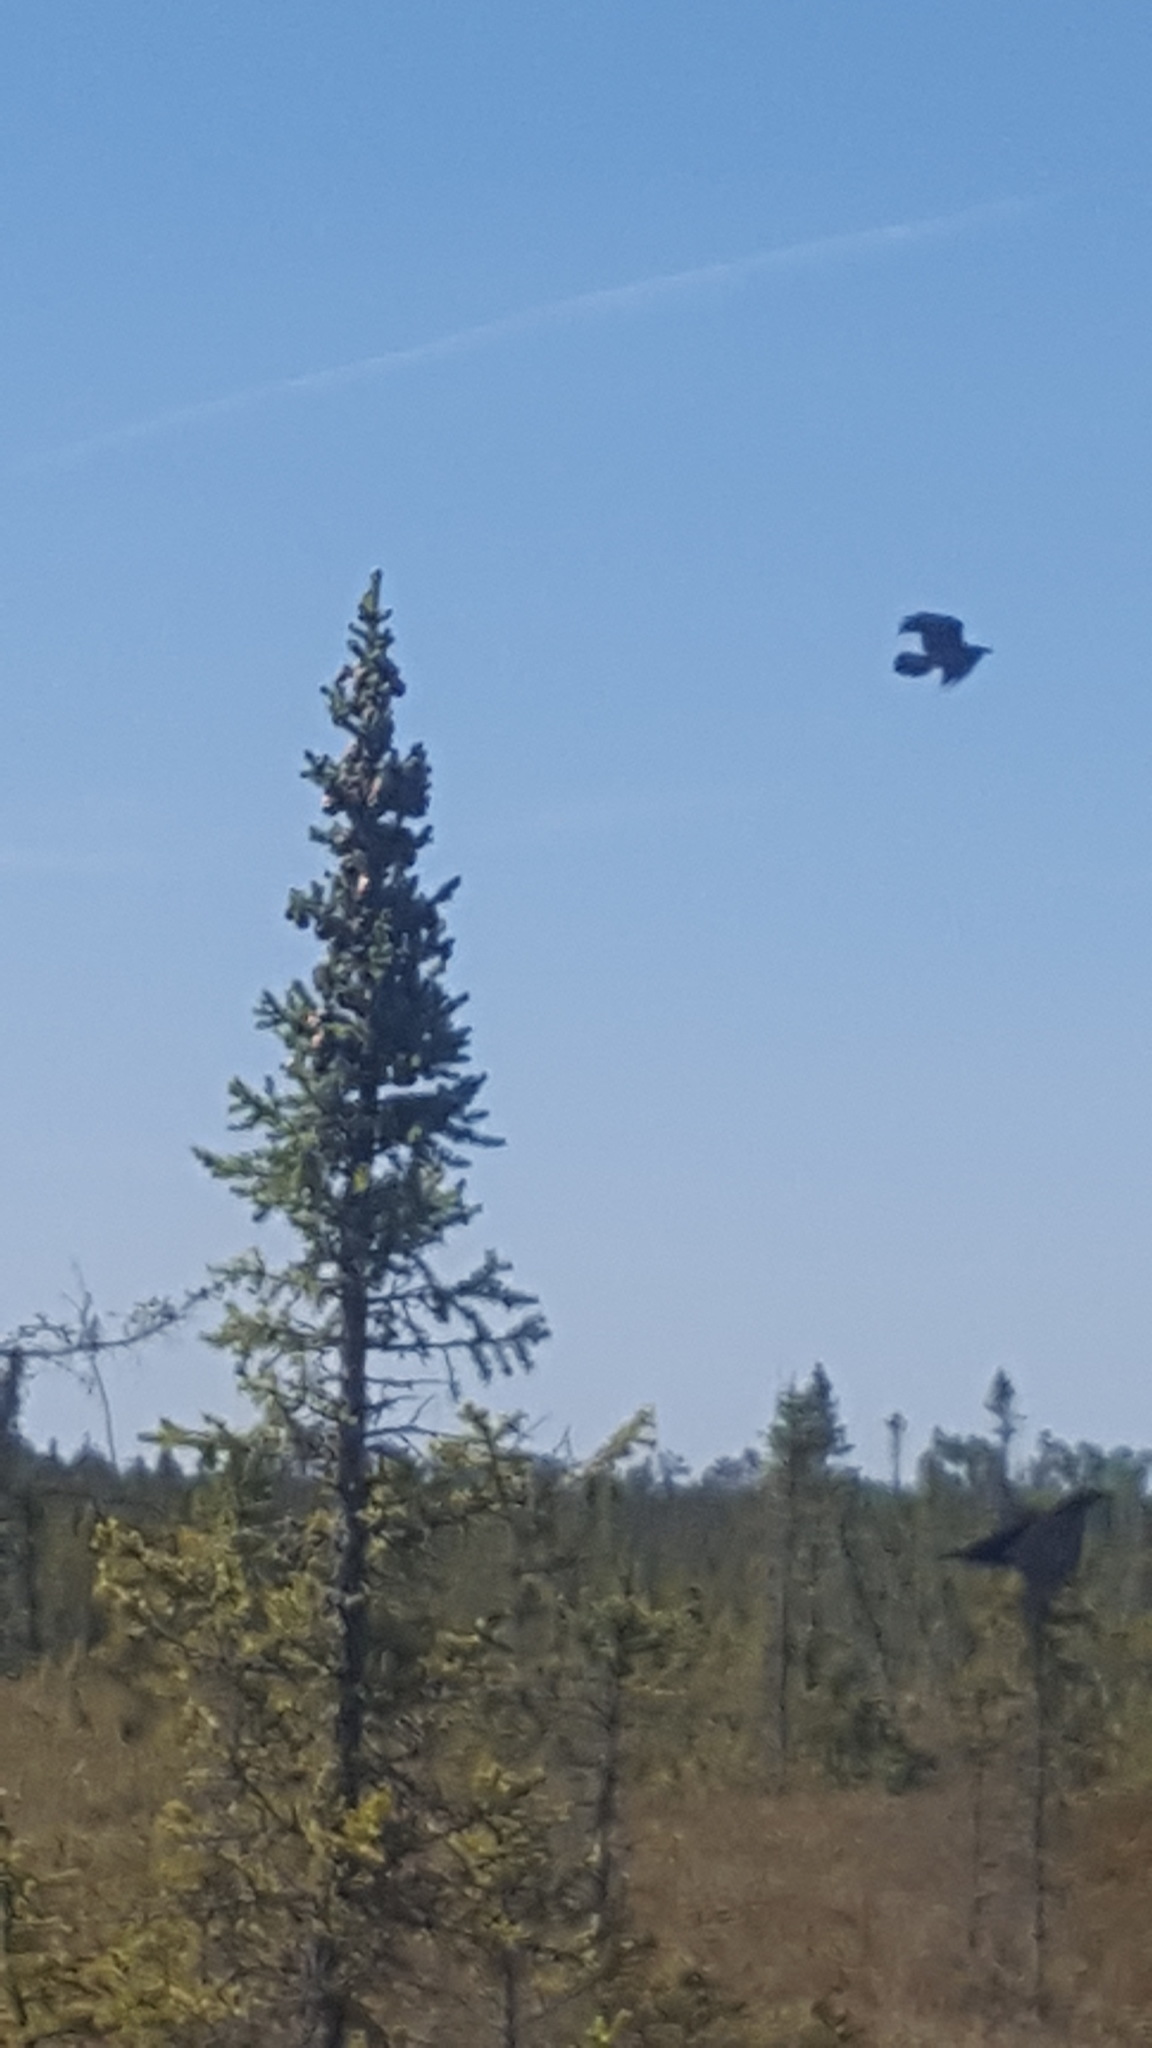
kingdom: Animalia
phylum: Chordata
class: Aves
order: Passeriformes
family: Corvidae
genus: Corvus
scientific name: Corvus corax
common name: Common raven
